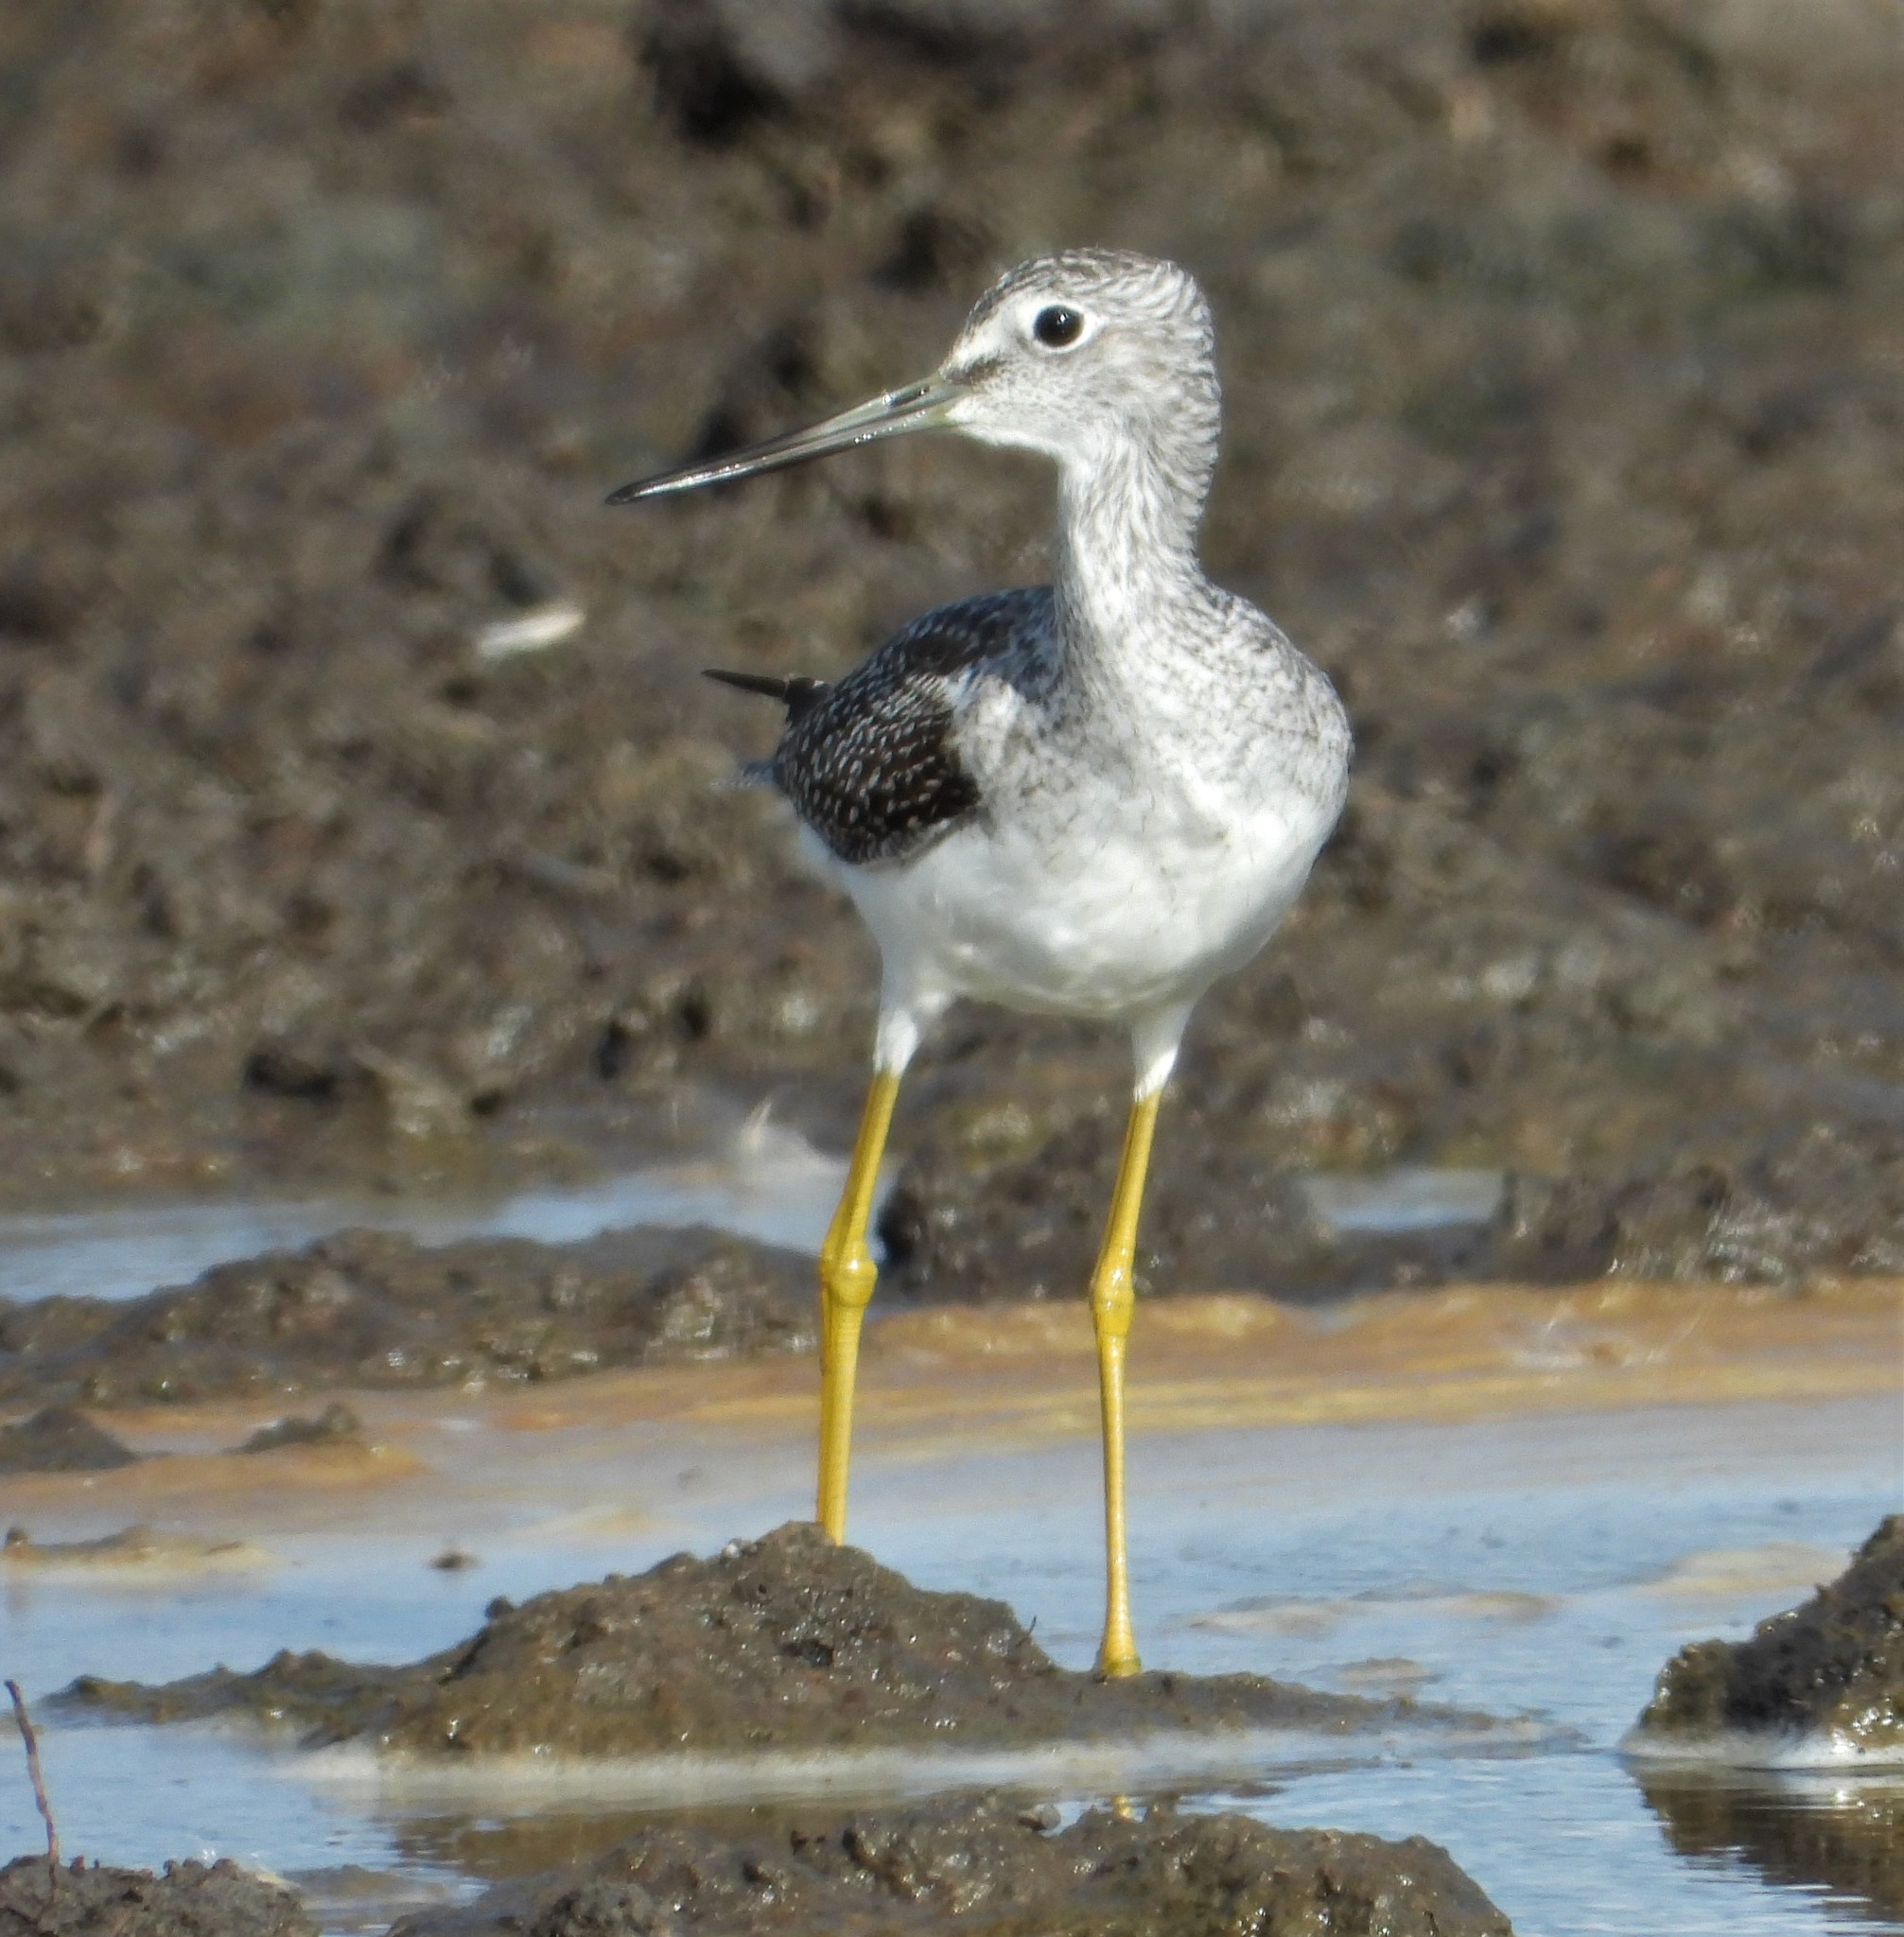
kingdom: Animalia
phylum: Chordata
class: Aves
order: Charadriiformes
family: Scolopacidae
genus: Tringa
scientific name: Tringa melanoleuca
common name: Greater yellowlegs
